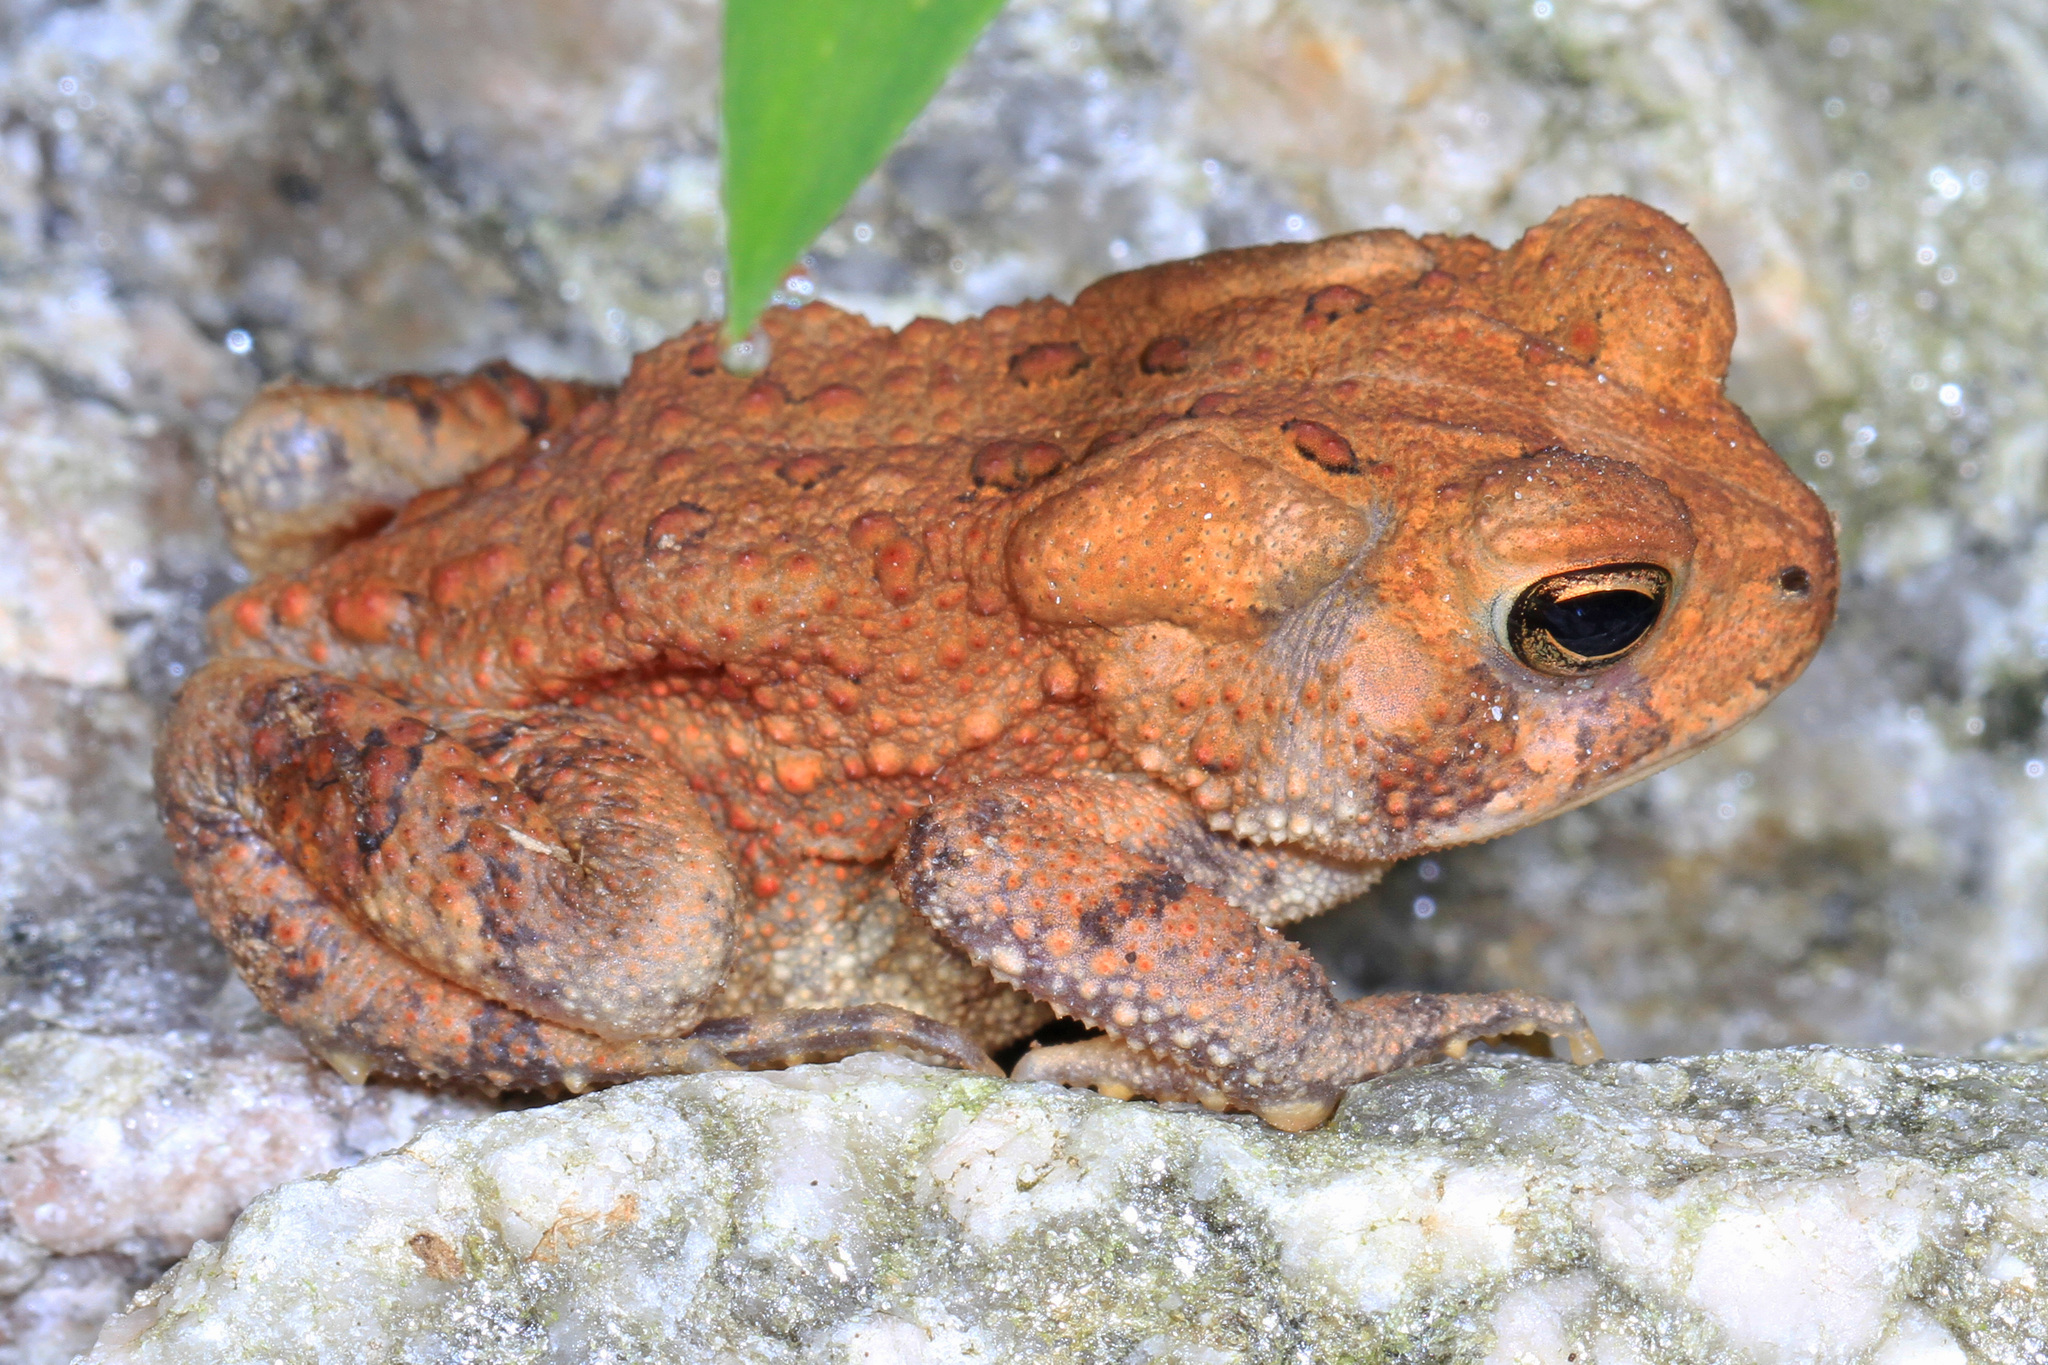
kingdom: Animalia
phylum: Chordata
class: Amphibia
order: Anura
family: Bufonidae
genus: Anaxyrus
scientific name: Anaxyrus americanus
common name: American toad
